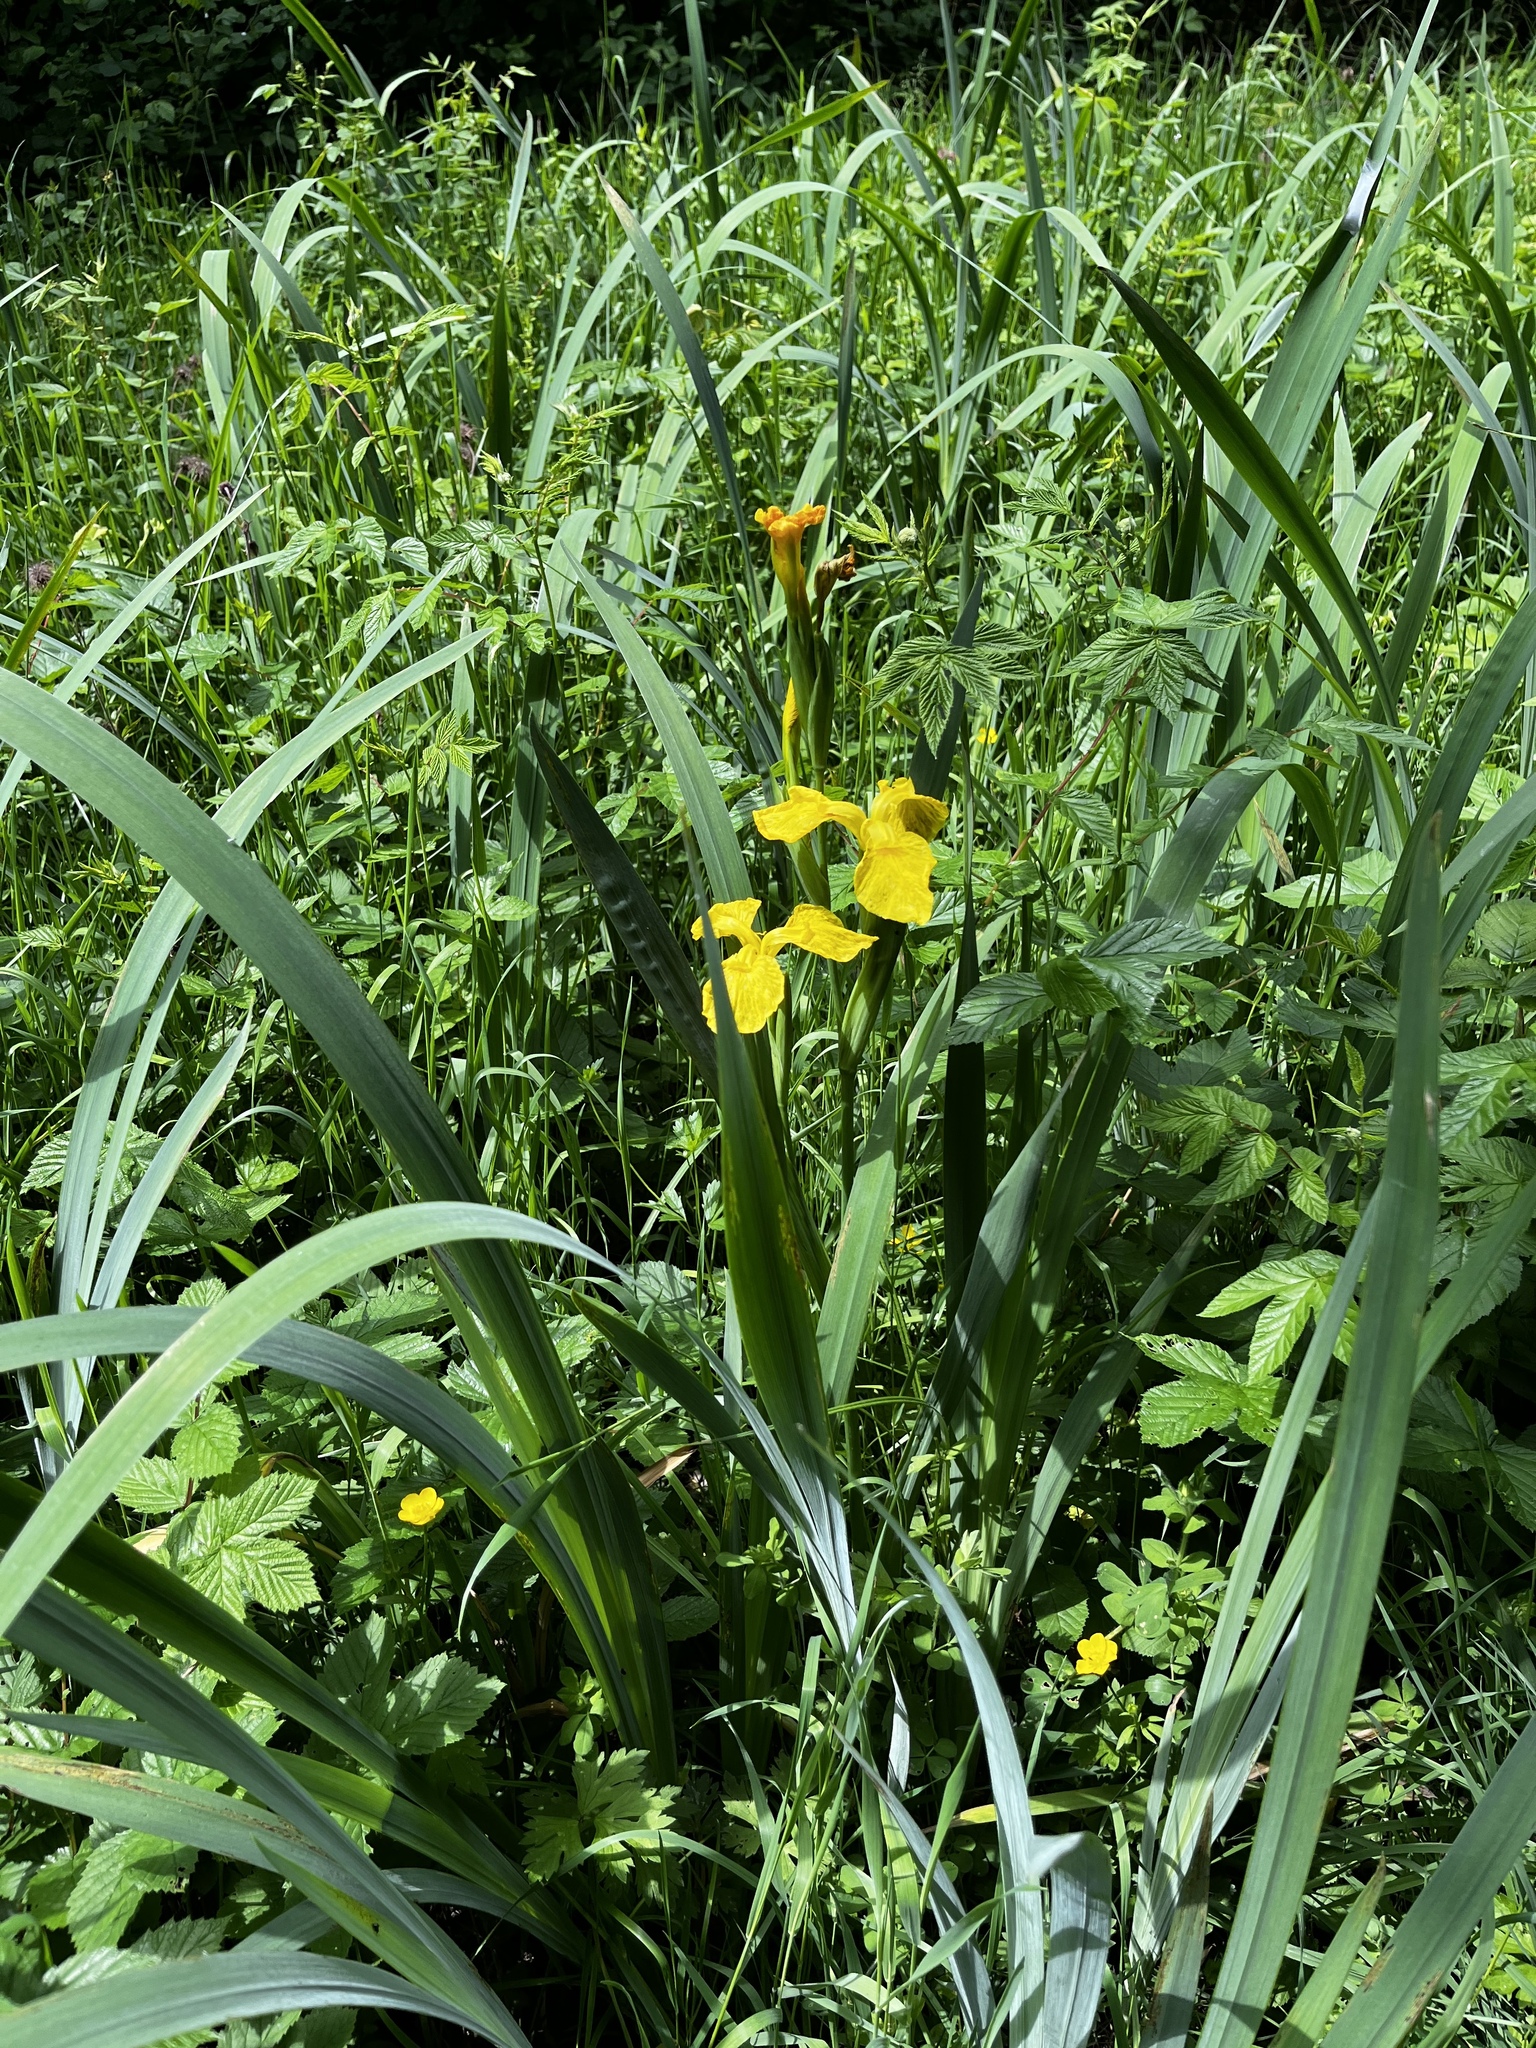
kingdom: Plantae
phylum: Tracheophyta
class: Liliopsida
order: Asparagales
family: Iridaceae
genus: Iris
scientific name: Iris pseudacorus
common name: Yellow flag
